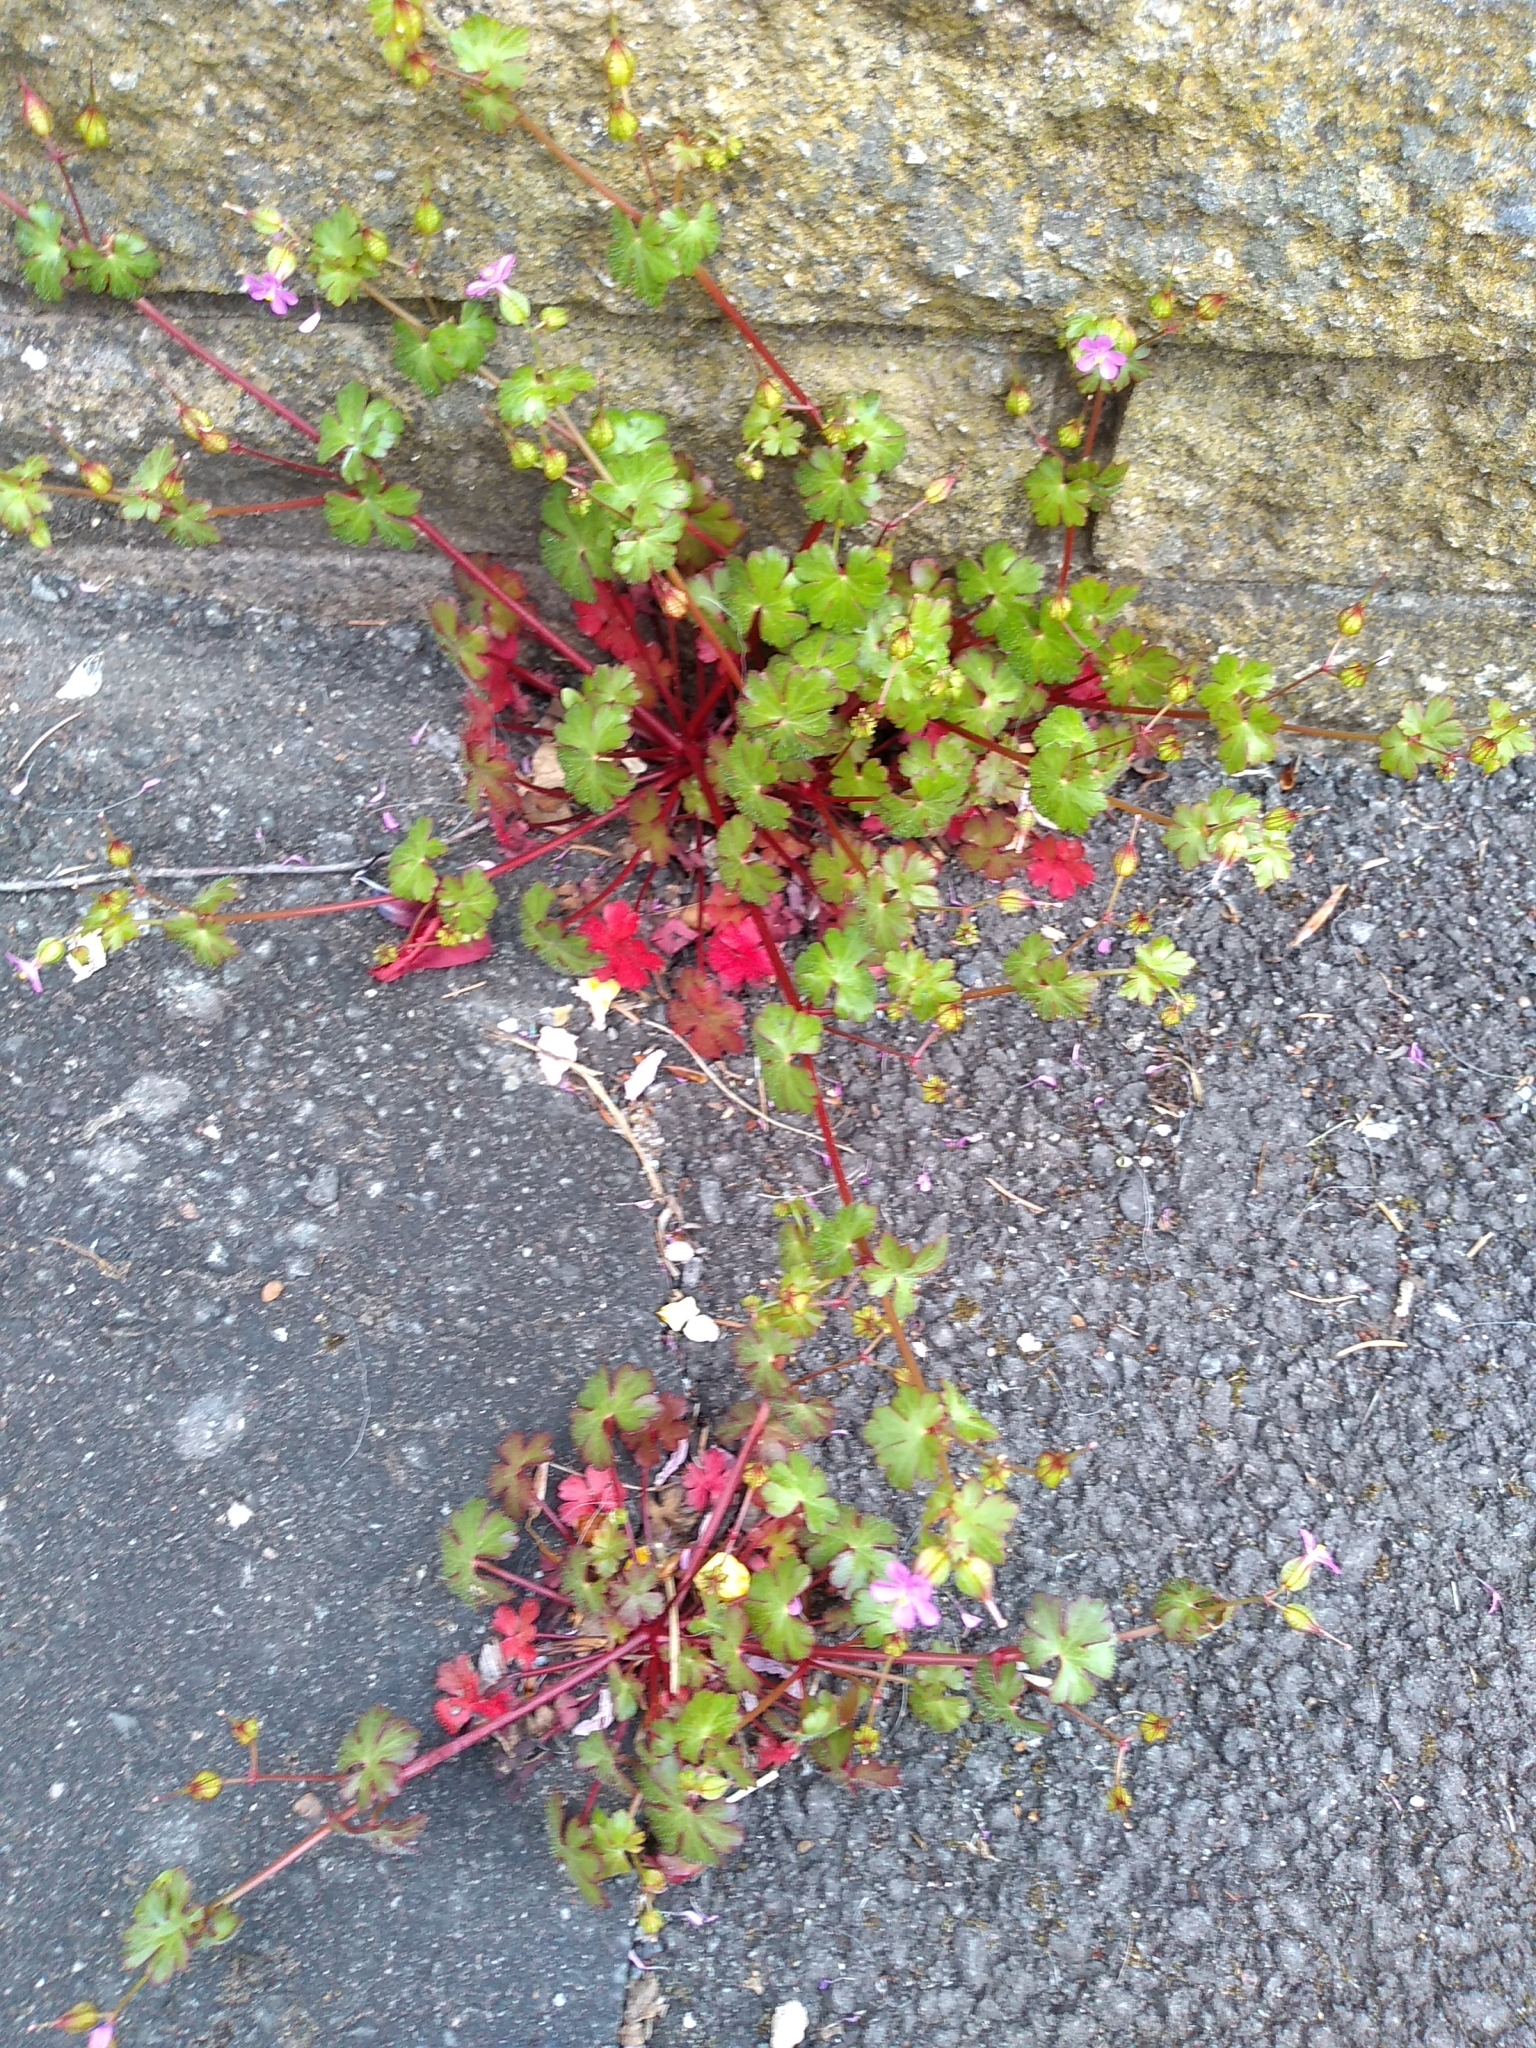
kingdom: Plantae
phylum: Tracheophyta
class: Magnoliopsida
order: Geraniales
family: Geraniaceae
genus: Geranium
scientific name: Geranium lucidum
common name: Shining crane's-bill
